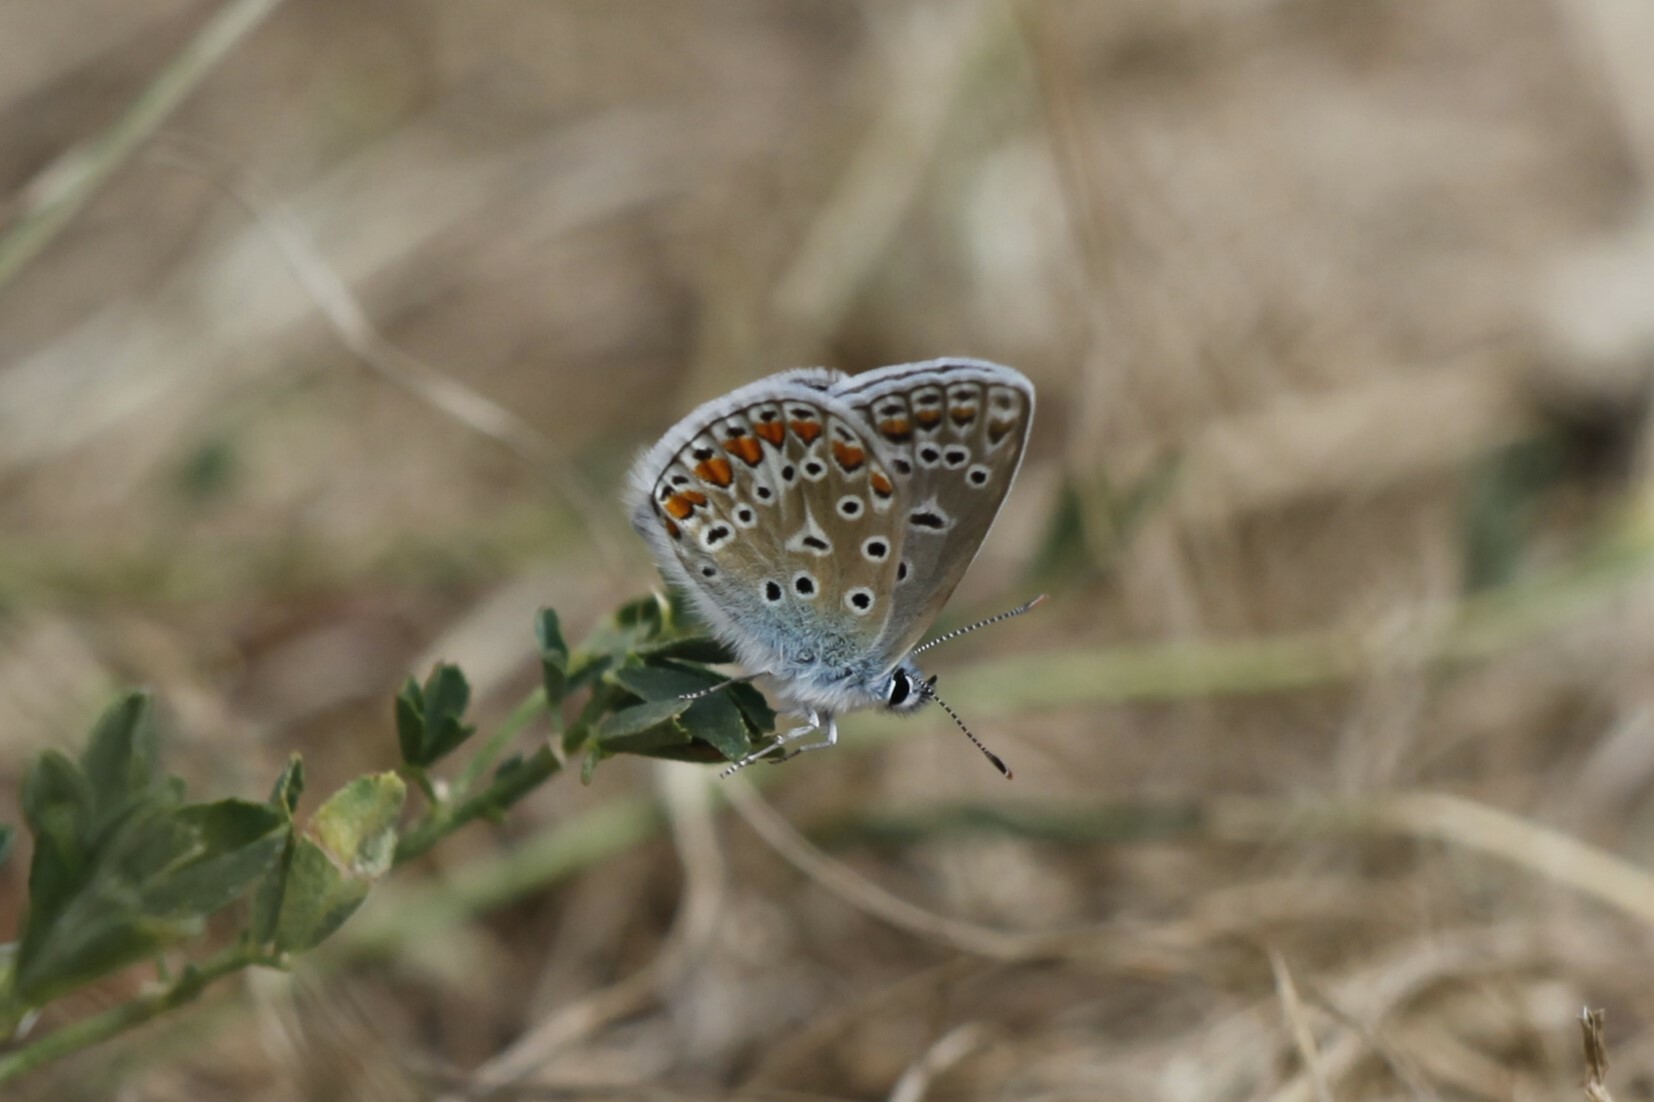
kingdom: Animalia
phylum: Arthropoda
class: Insecta
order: Lepidoptera
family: Lycaenidae
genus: Polyommatus
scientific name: Polyommatus icarus
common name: Common blue
